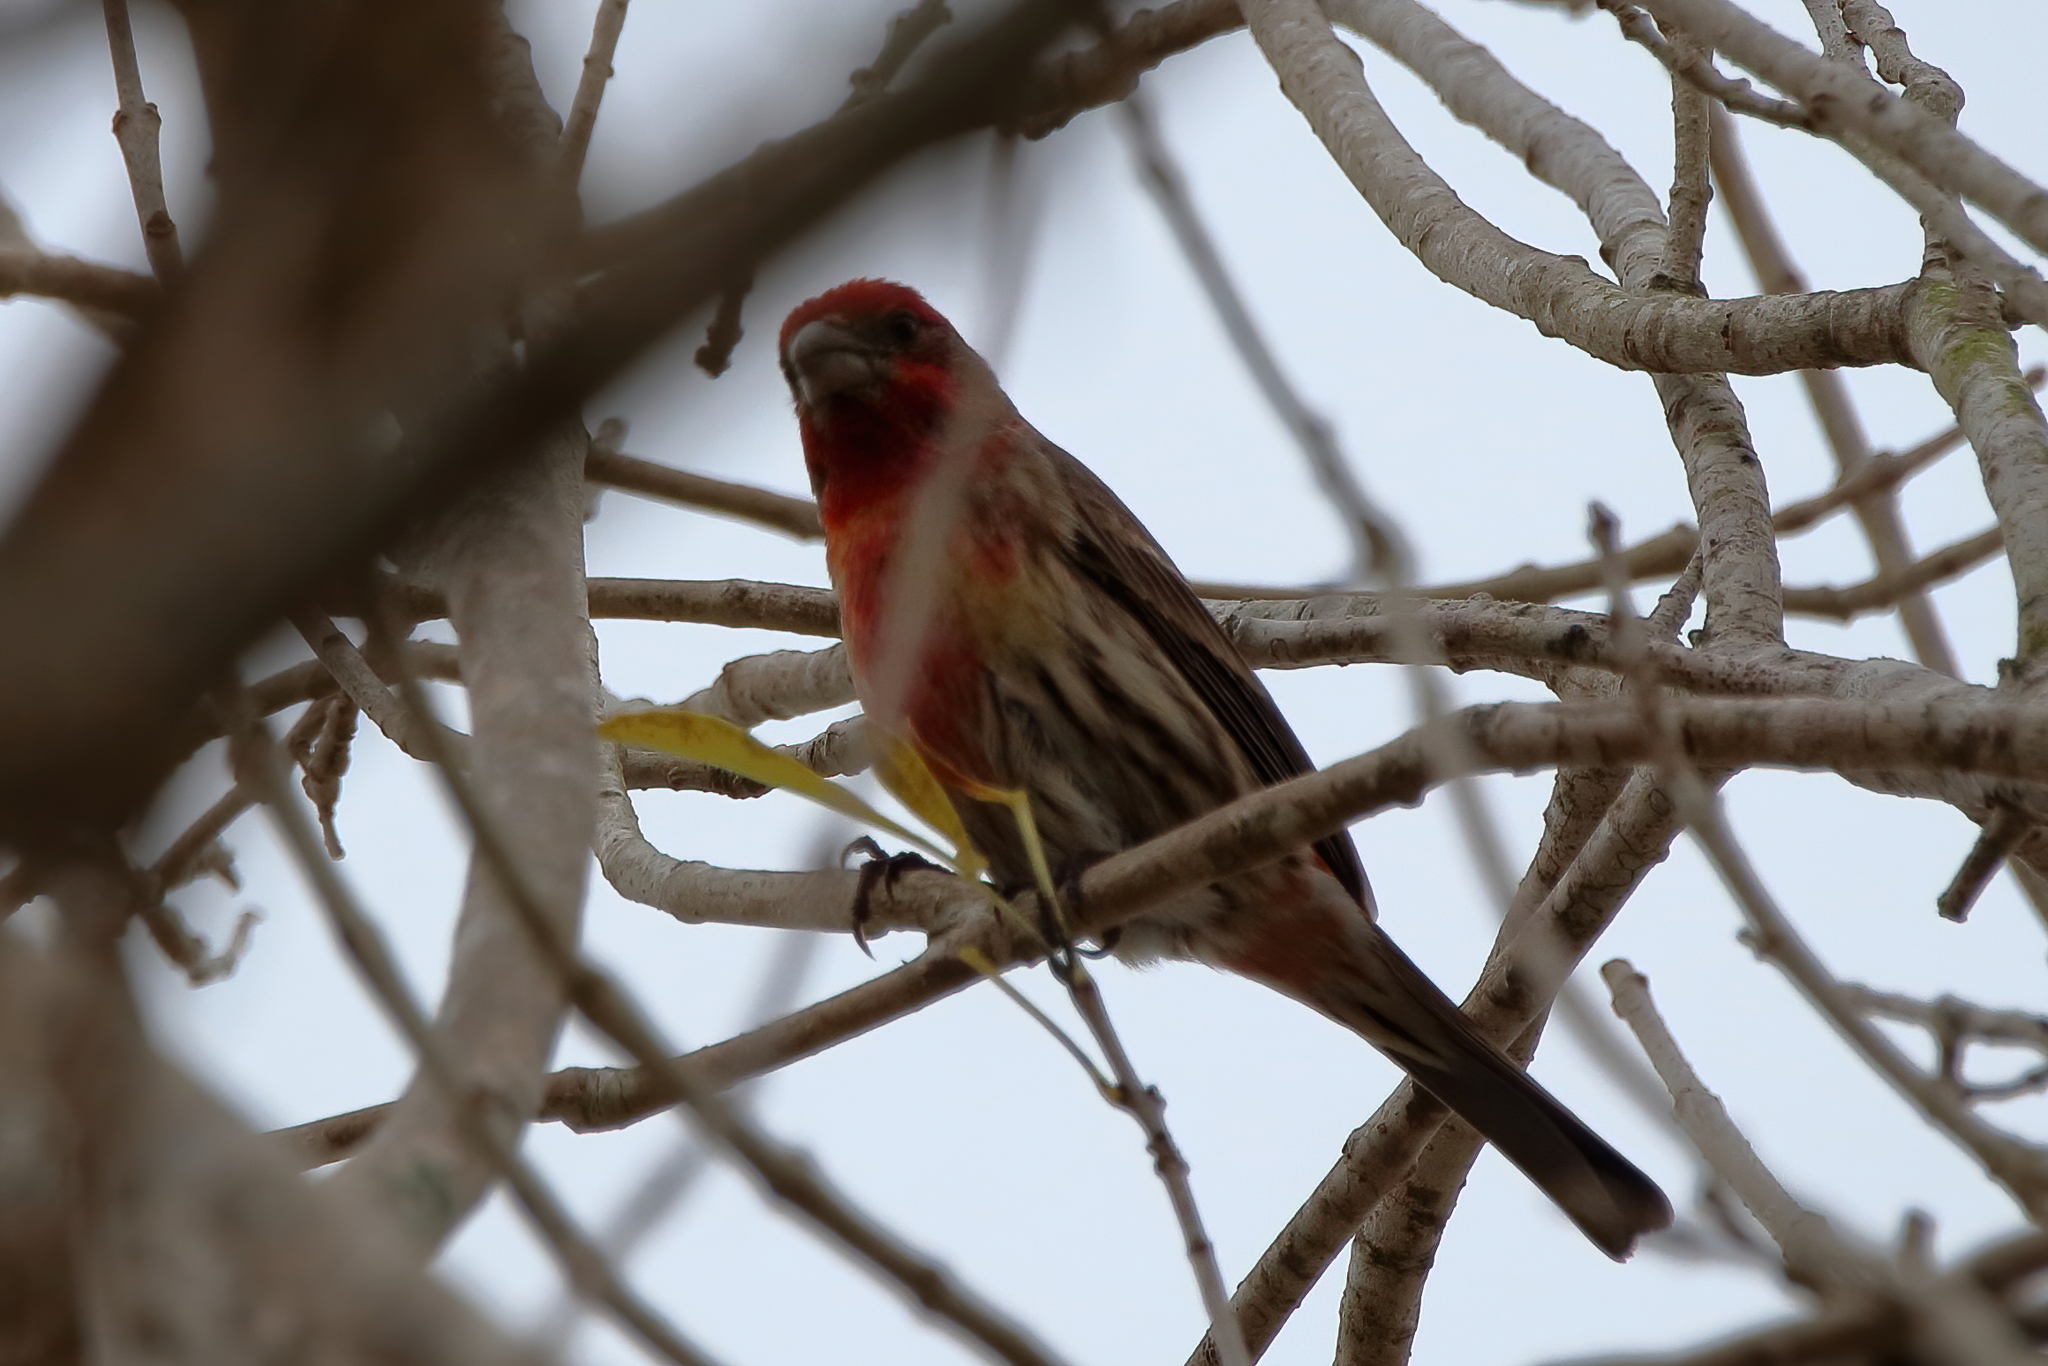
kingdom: Animalia
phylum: Chordata
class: Aves
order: Passeriformes
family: Fringillidae
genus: Haemorhous
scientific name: Haemorhous mexicanus
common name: House finch
